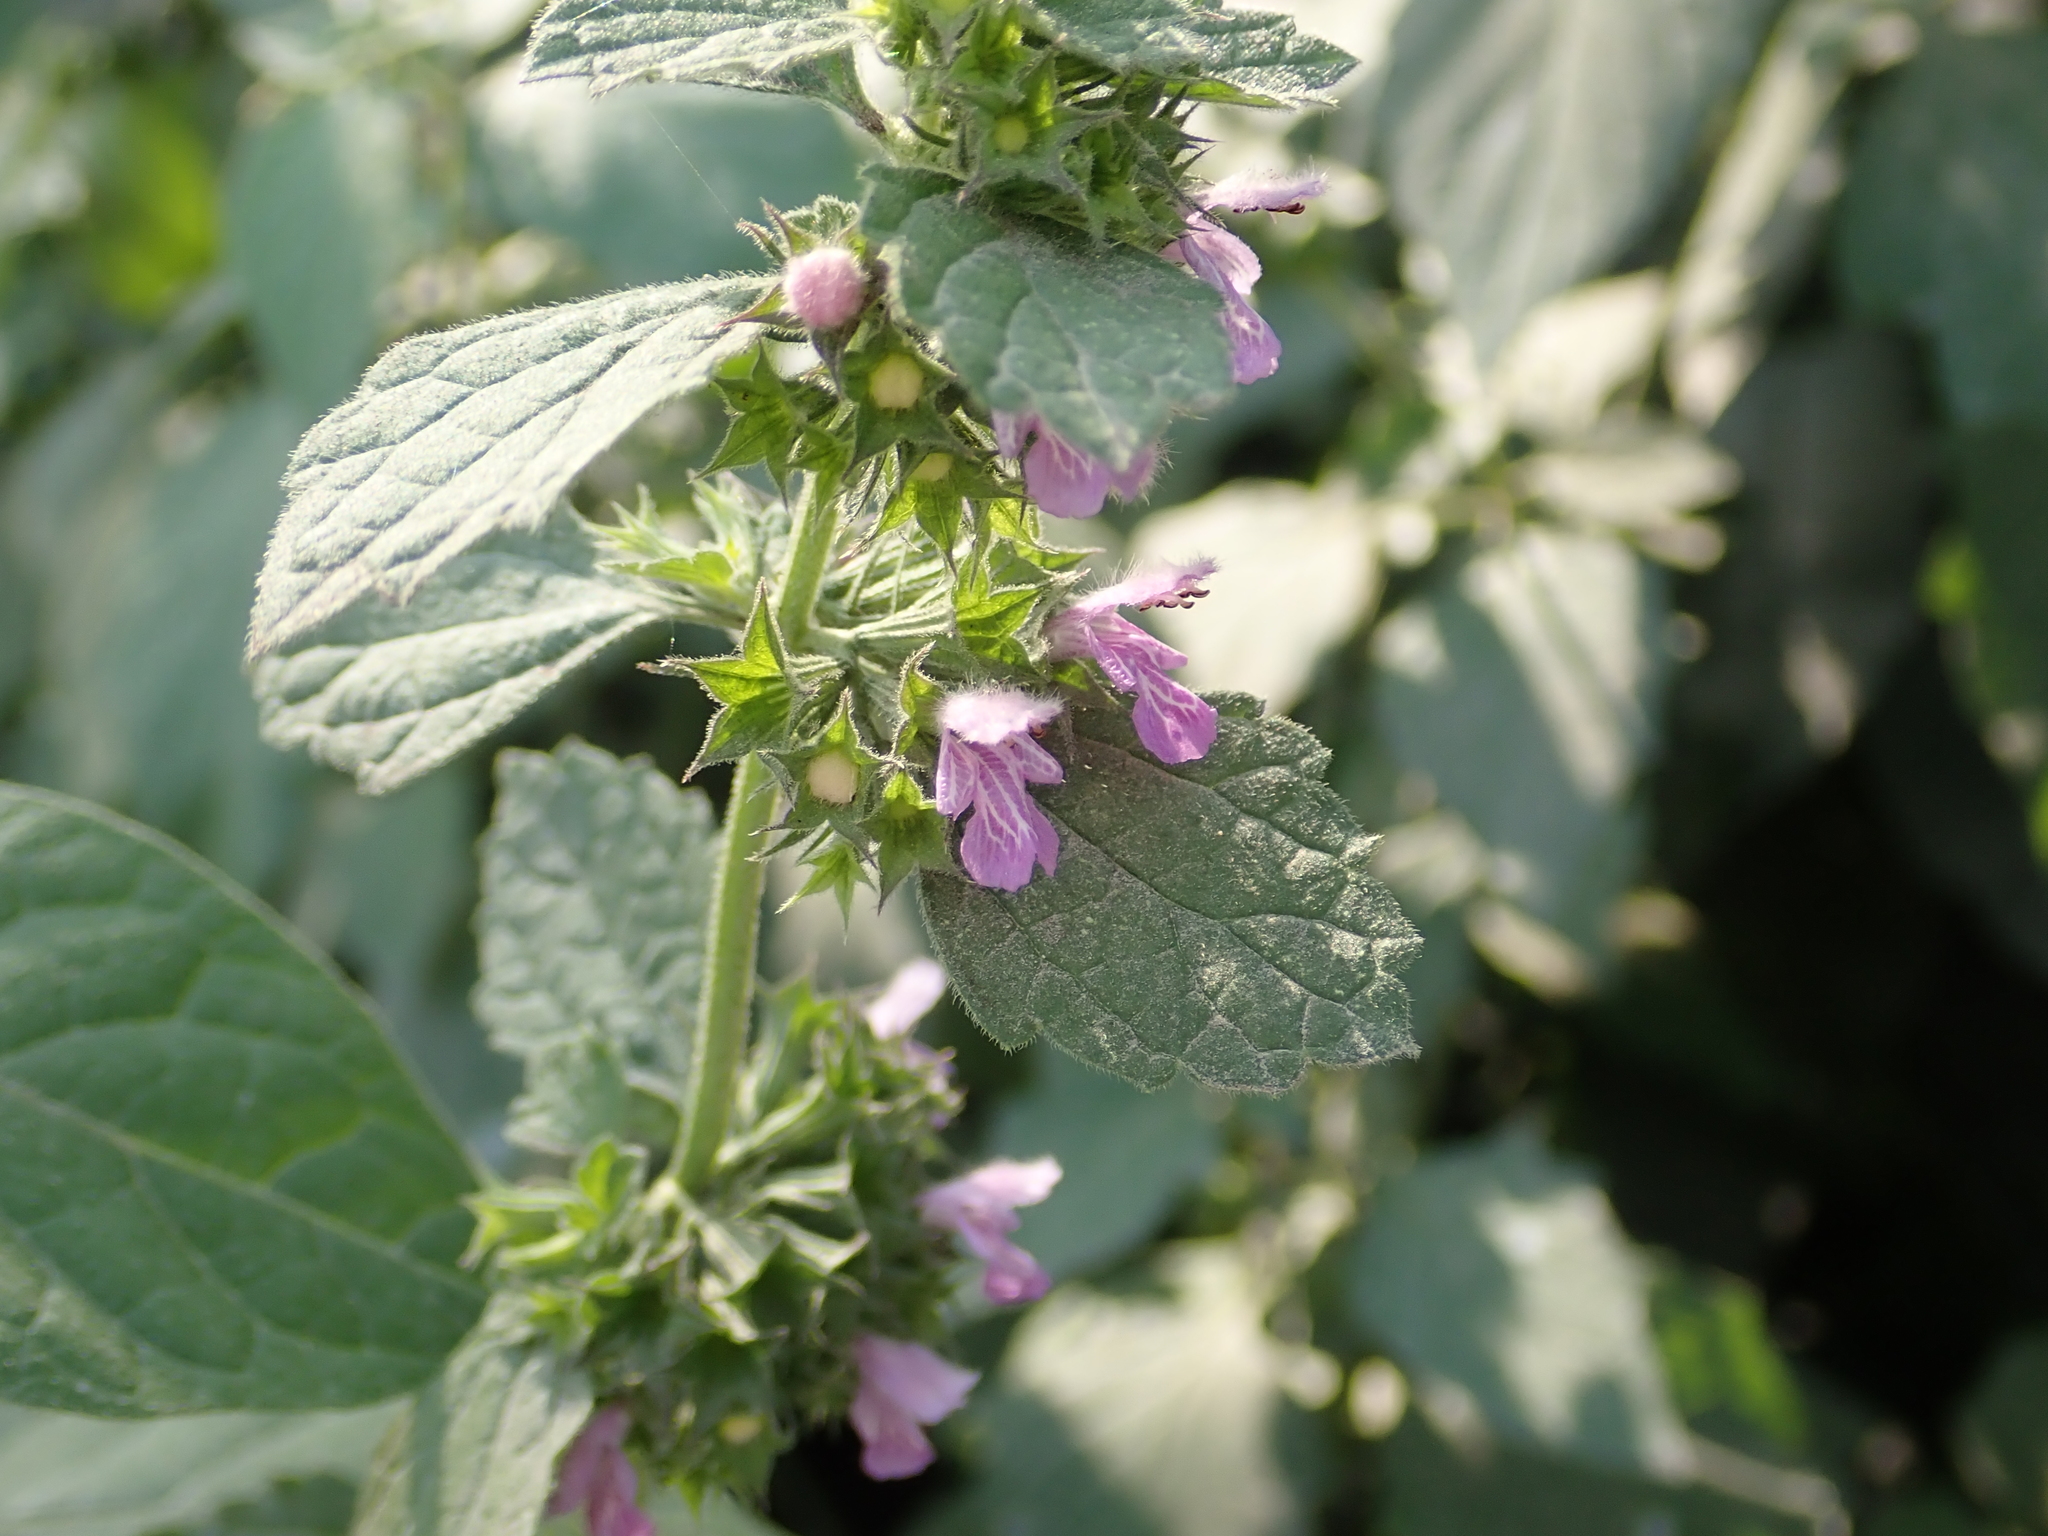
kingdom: Plantae
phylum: Tracheophyta
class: Magnoliopsida
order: Lamiales
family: Lamiaceae
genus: Ballota
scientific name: Ballota nigra
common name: Black horehound
